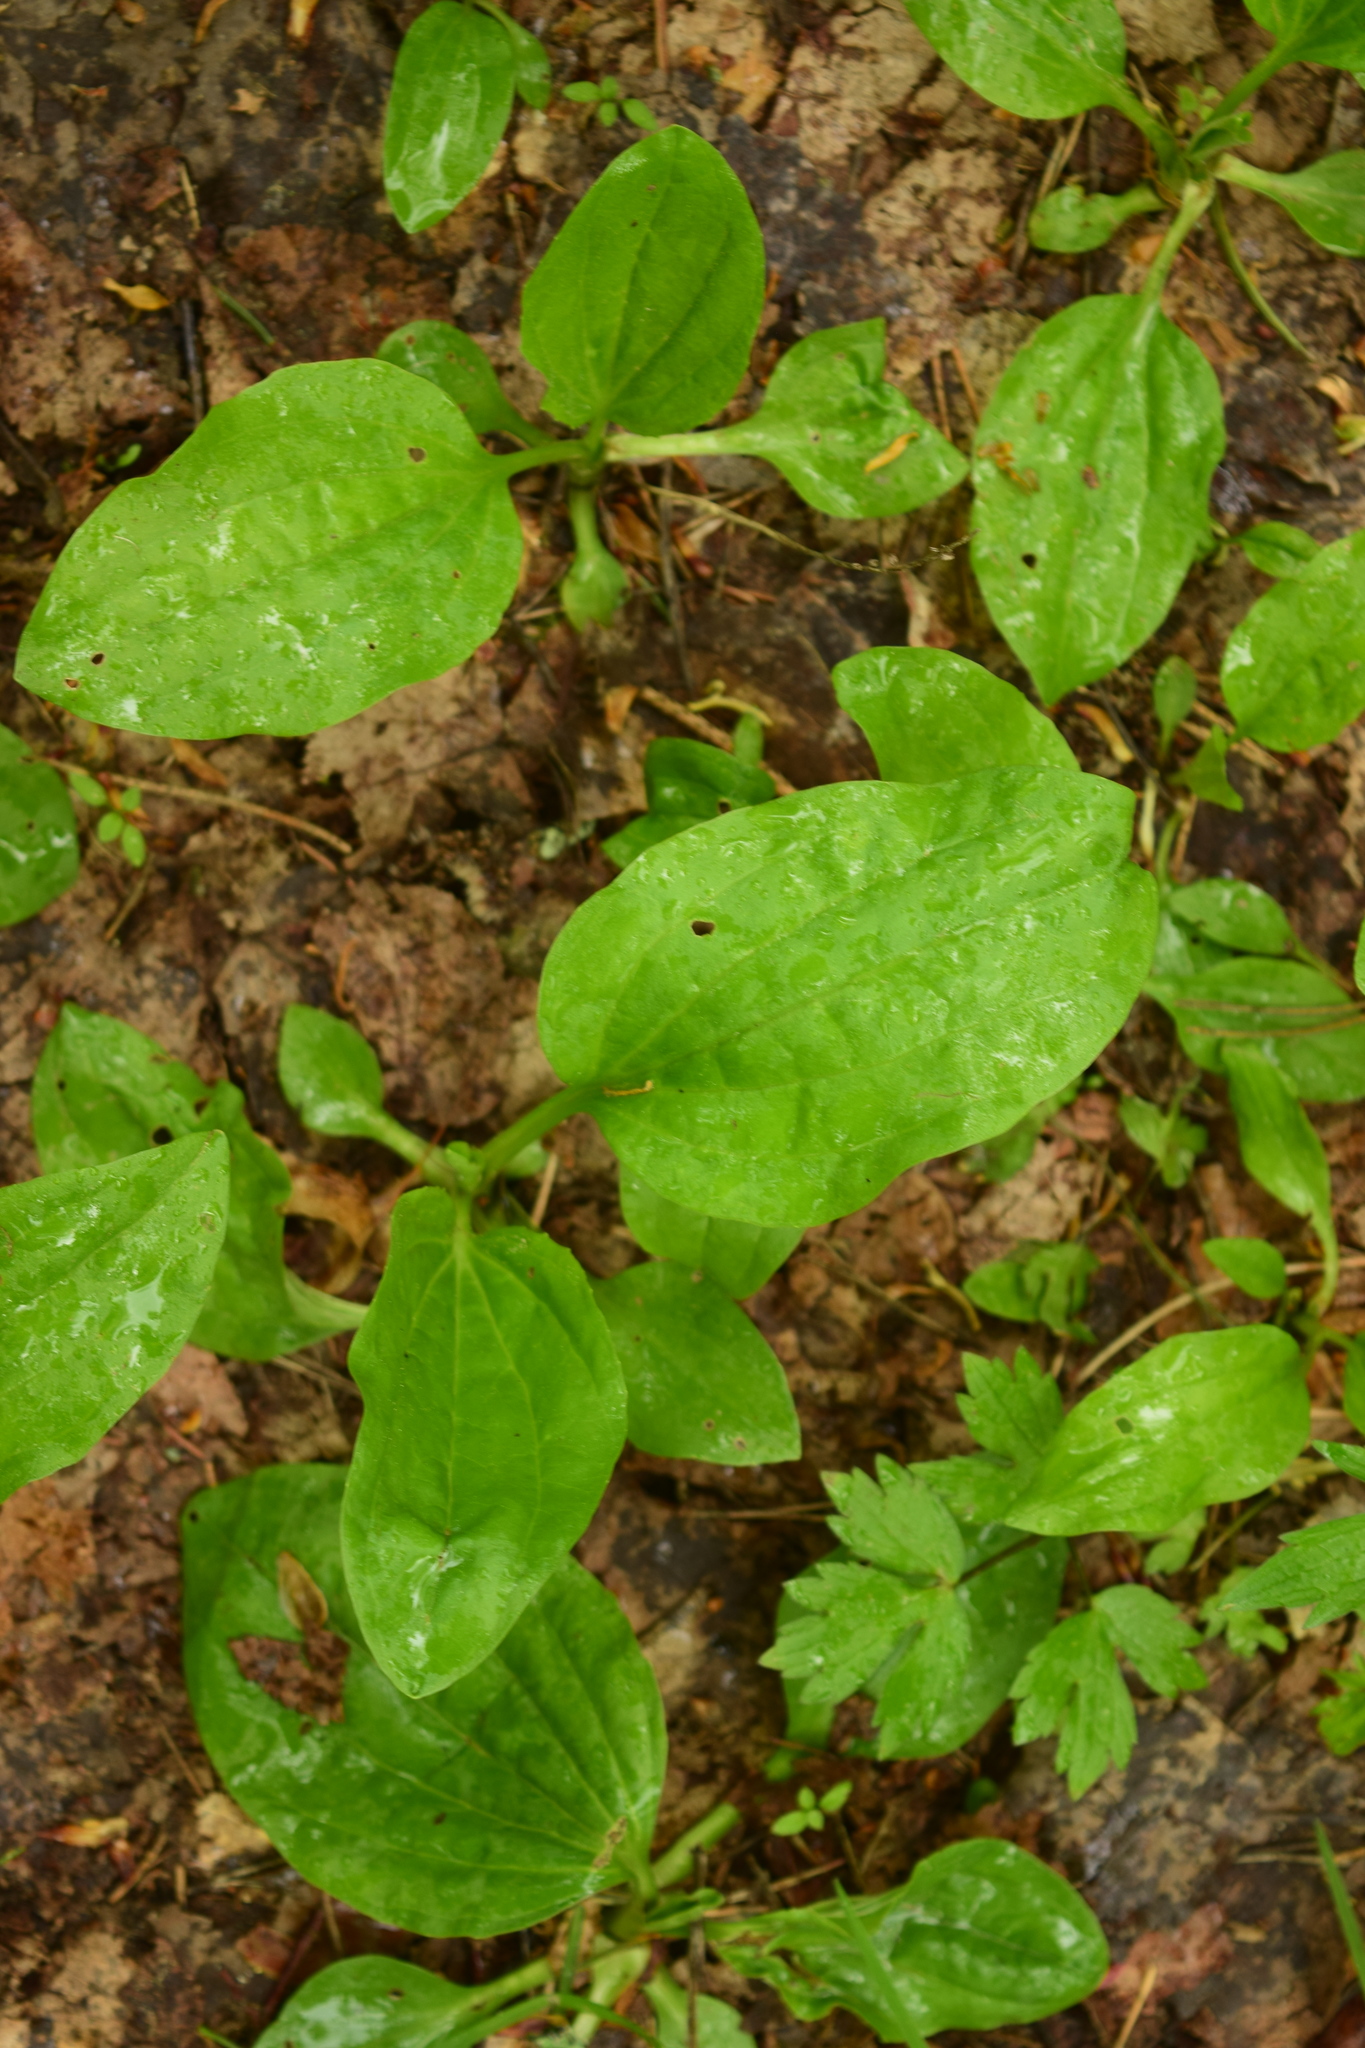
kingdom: Plantae
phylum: Tracheophyta
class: Magnoliopsida
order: Lamiales
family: Plantaginaceae
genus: Plantago
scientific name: Plantago major
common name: Common plantain
